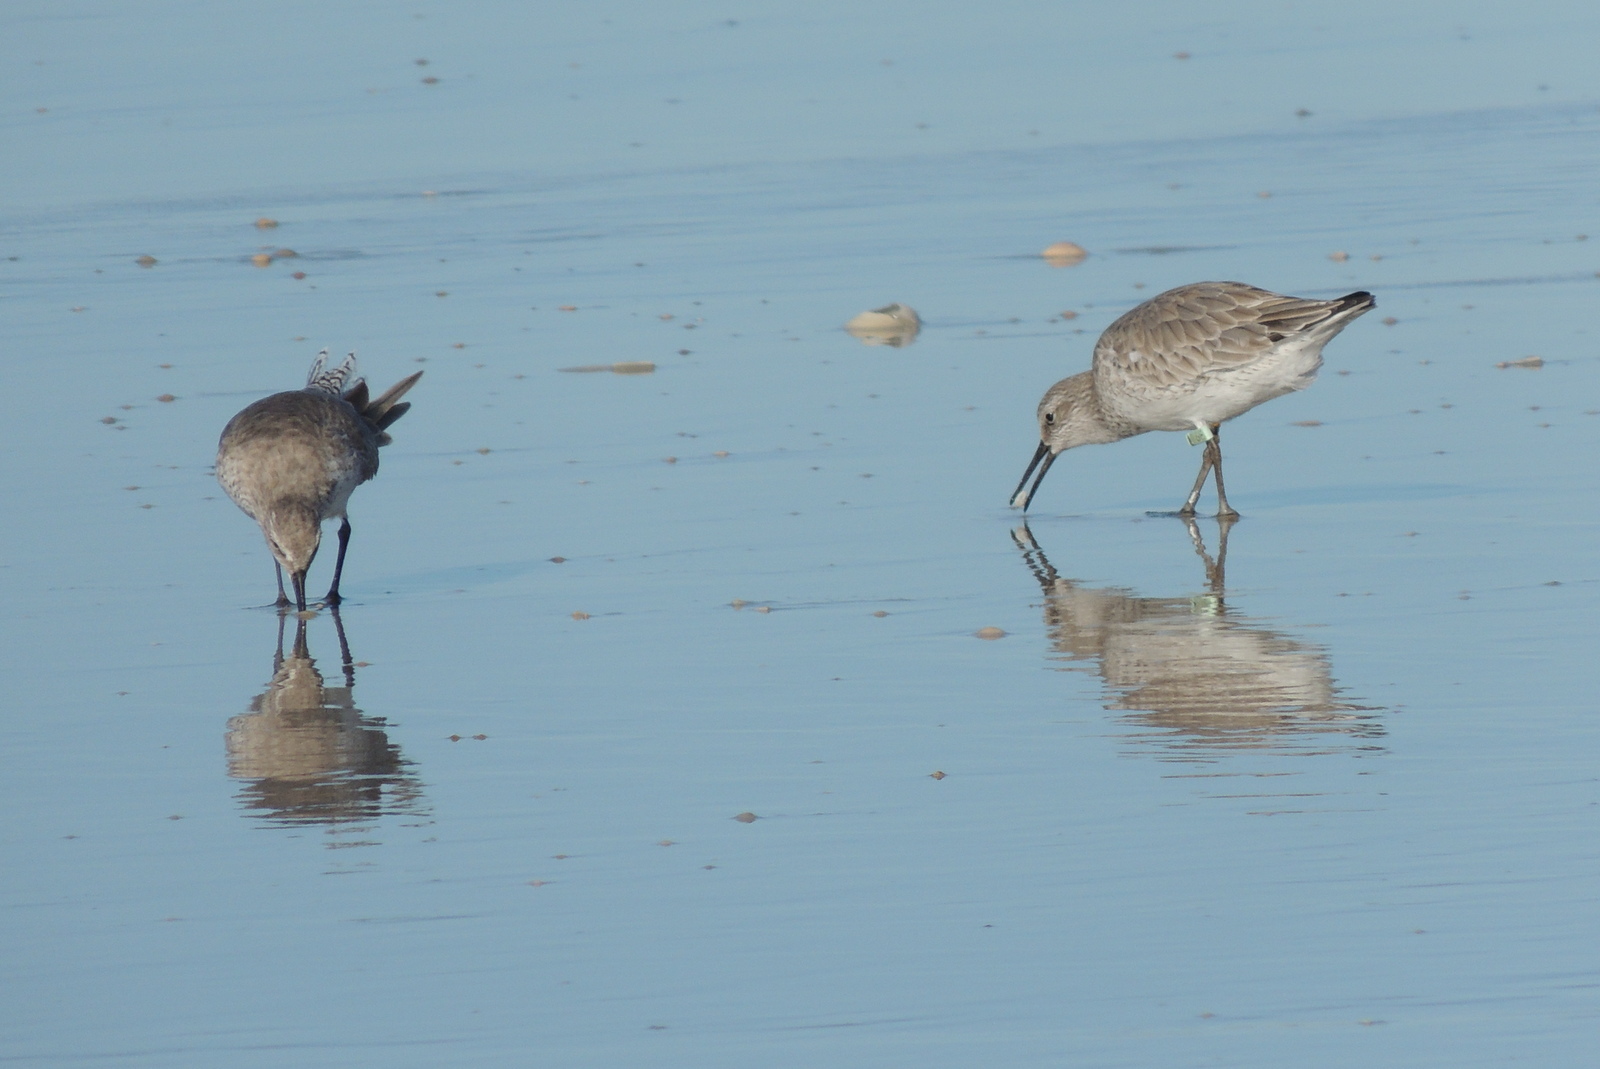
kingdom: Animalia
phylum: Chordata
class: Aves
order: Charadriiformes
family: Scolopacidae
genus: Calidris
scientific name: Calidris canutus
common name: Red knot
